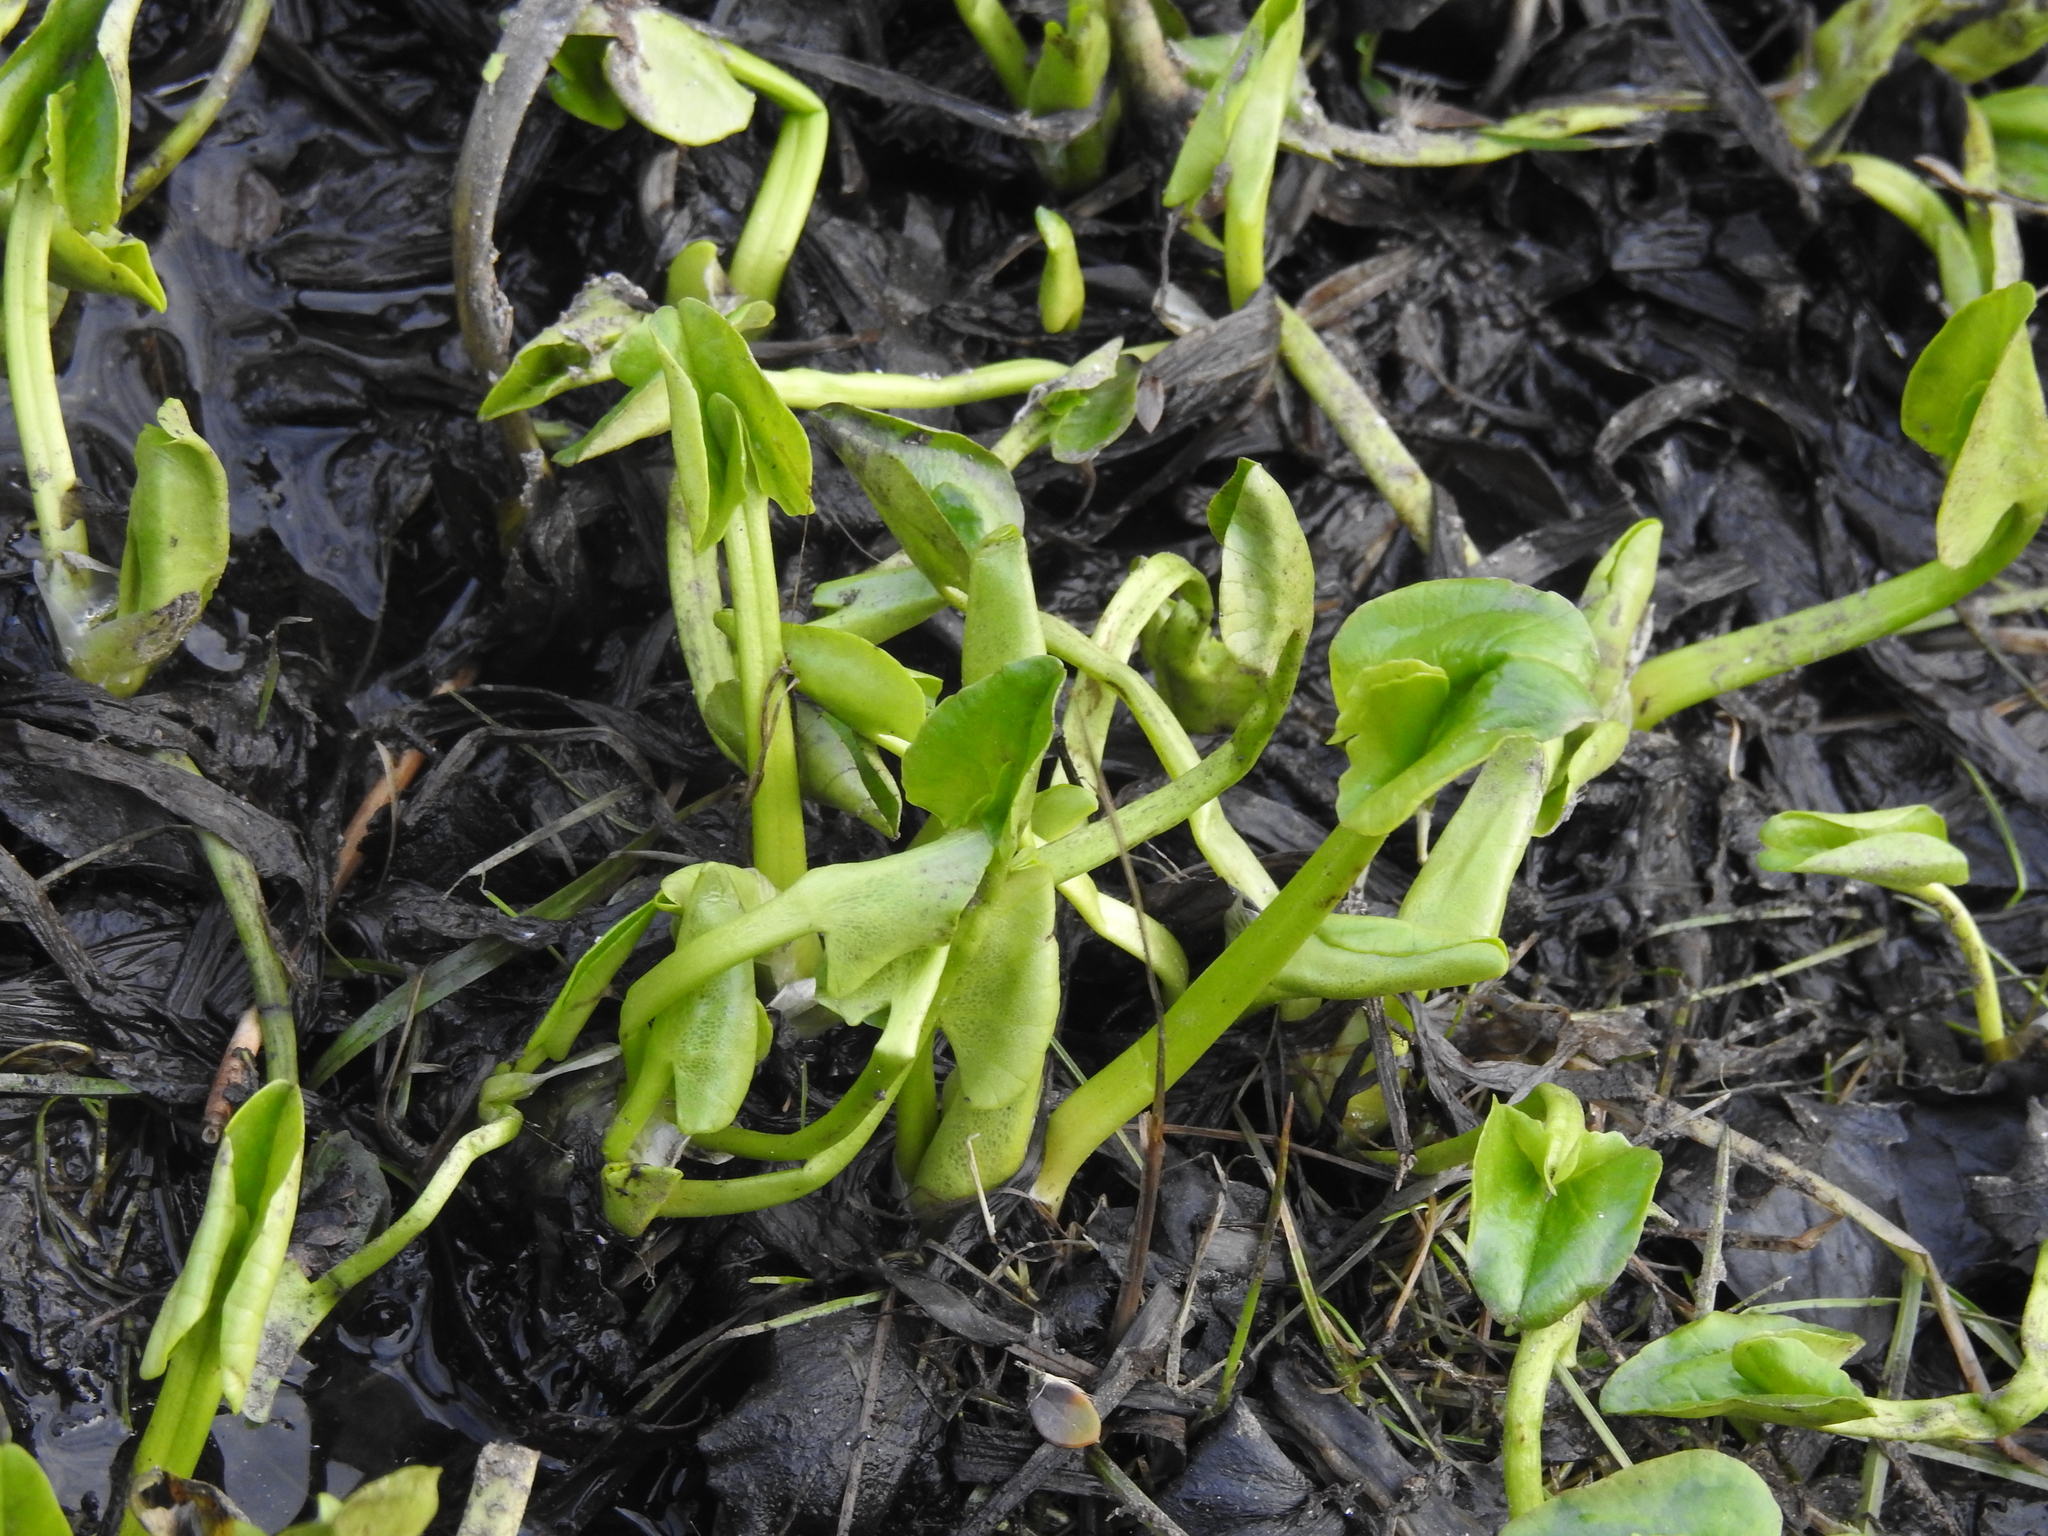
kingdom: Plantae
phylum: Tracheophyta
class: Magnoliopsida
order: Ranunculales
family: Ranunculaceae
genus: Caltha
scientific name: Caltha sagittata
